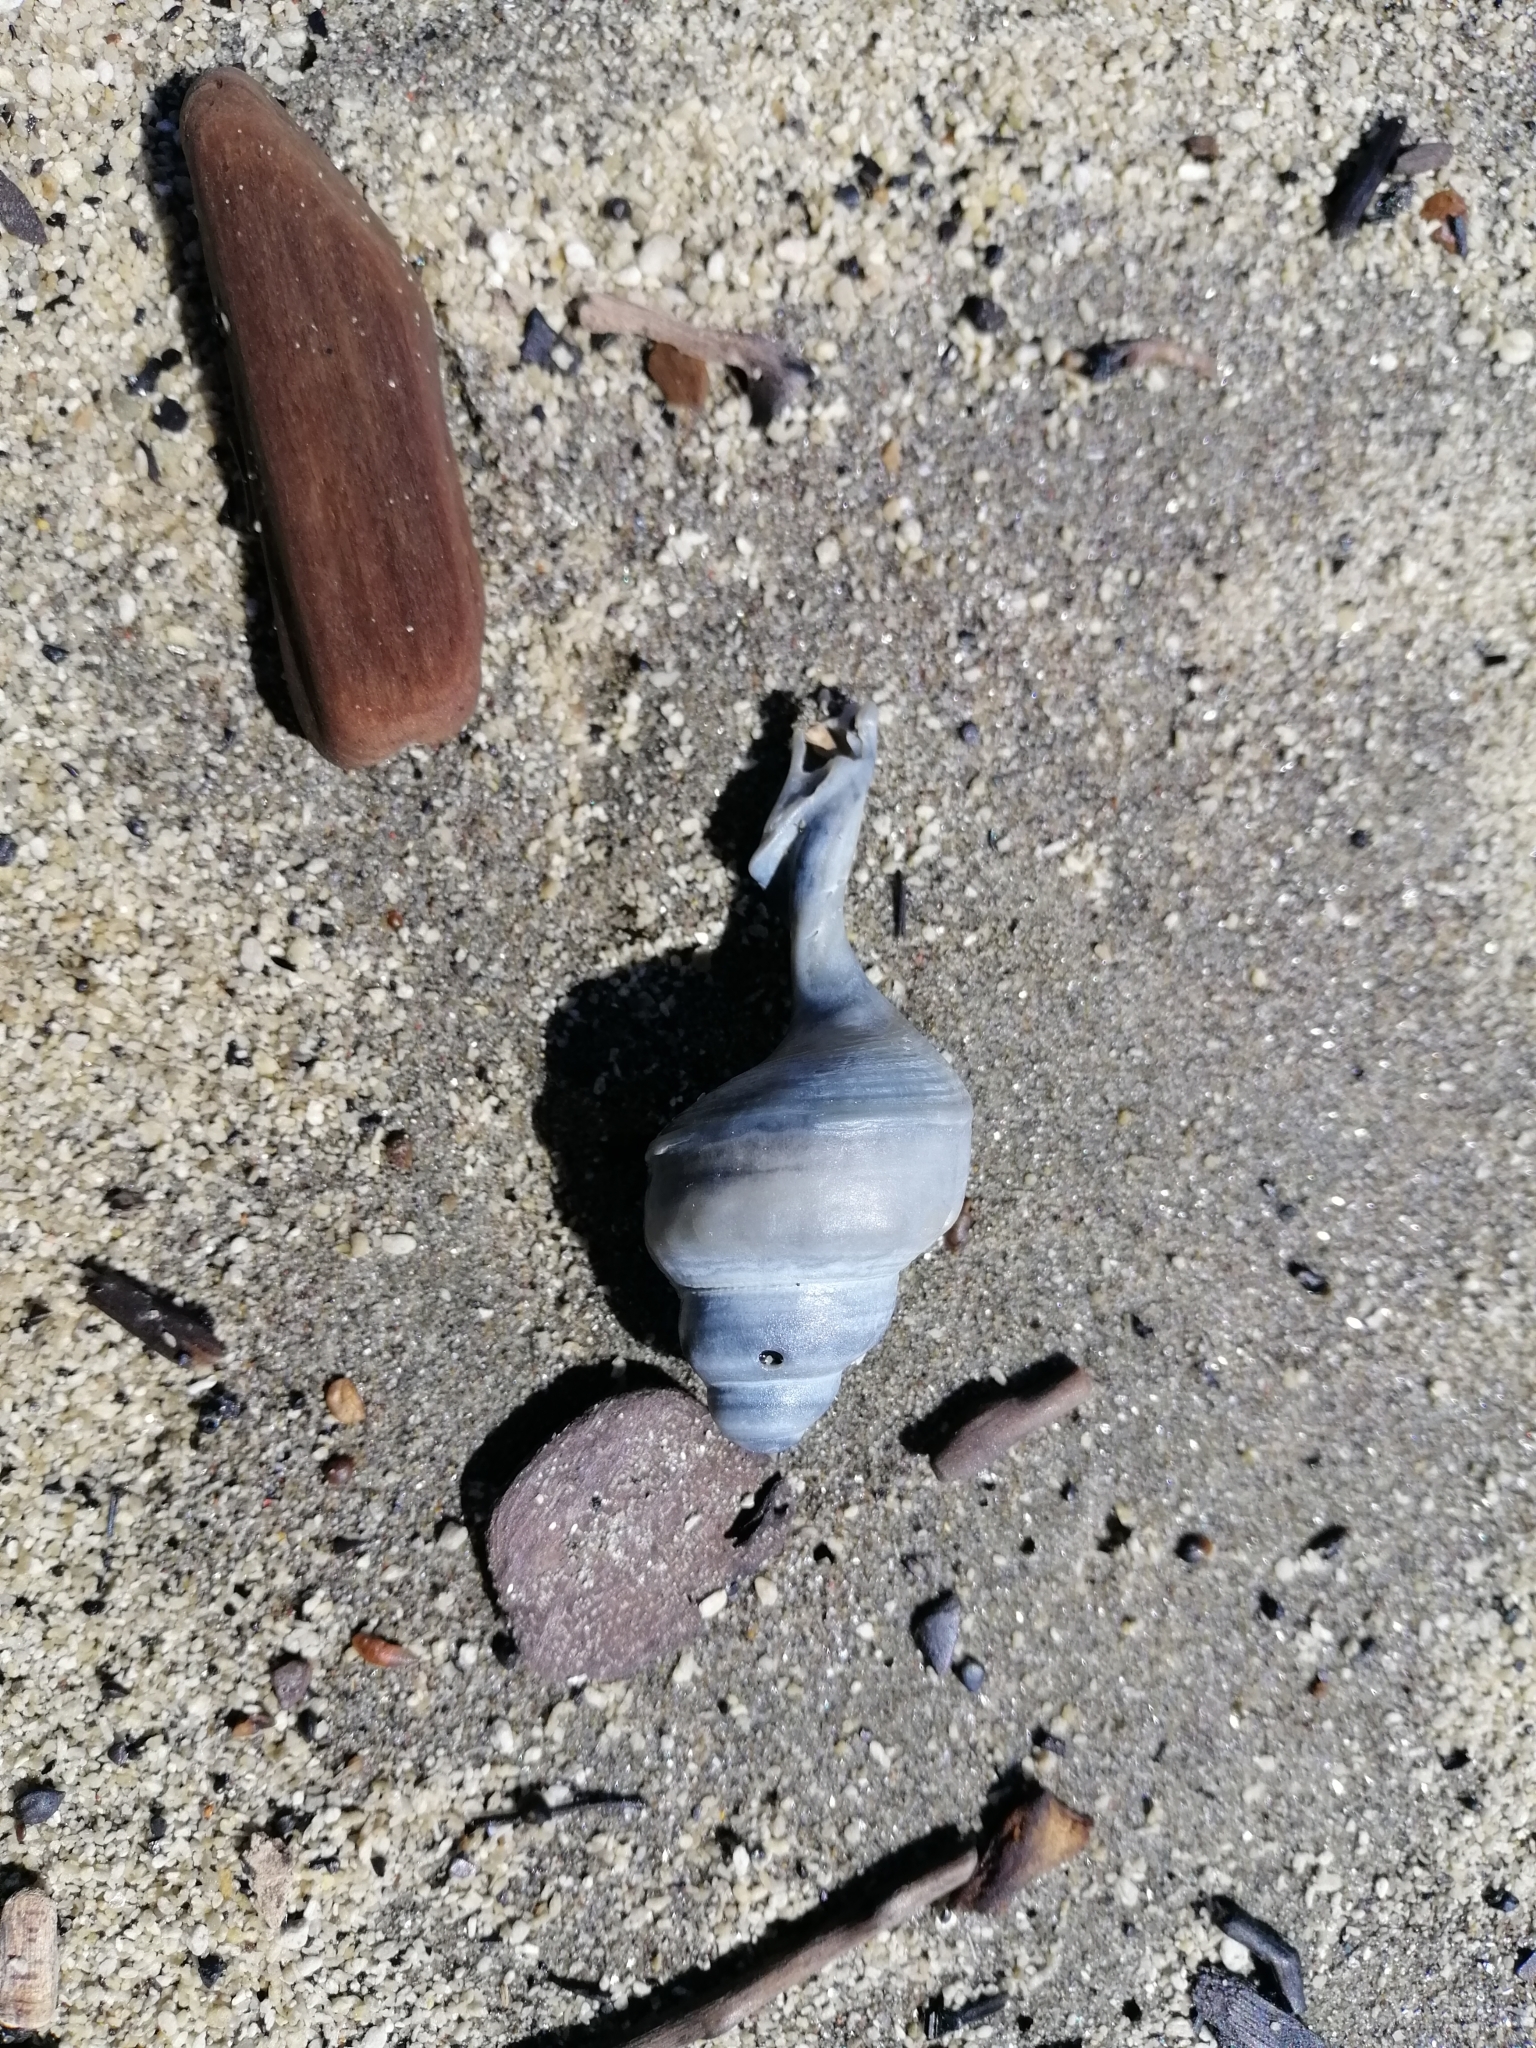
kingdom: Animalia
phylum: Mollusca
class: Gastropoda
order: Littorinimorpha
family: Struthiolariidae
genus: Struthiolaria
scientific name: Struthiolaria papulosa
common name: Large ostrich foot
